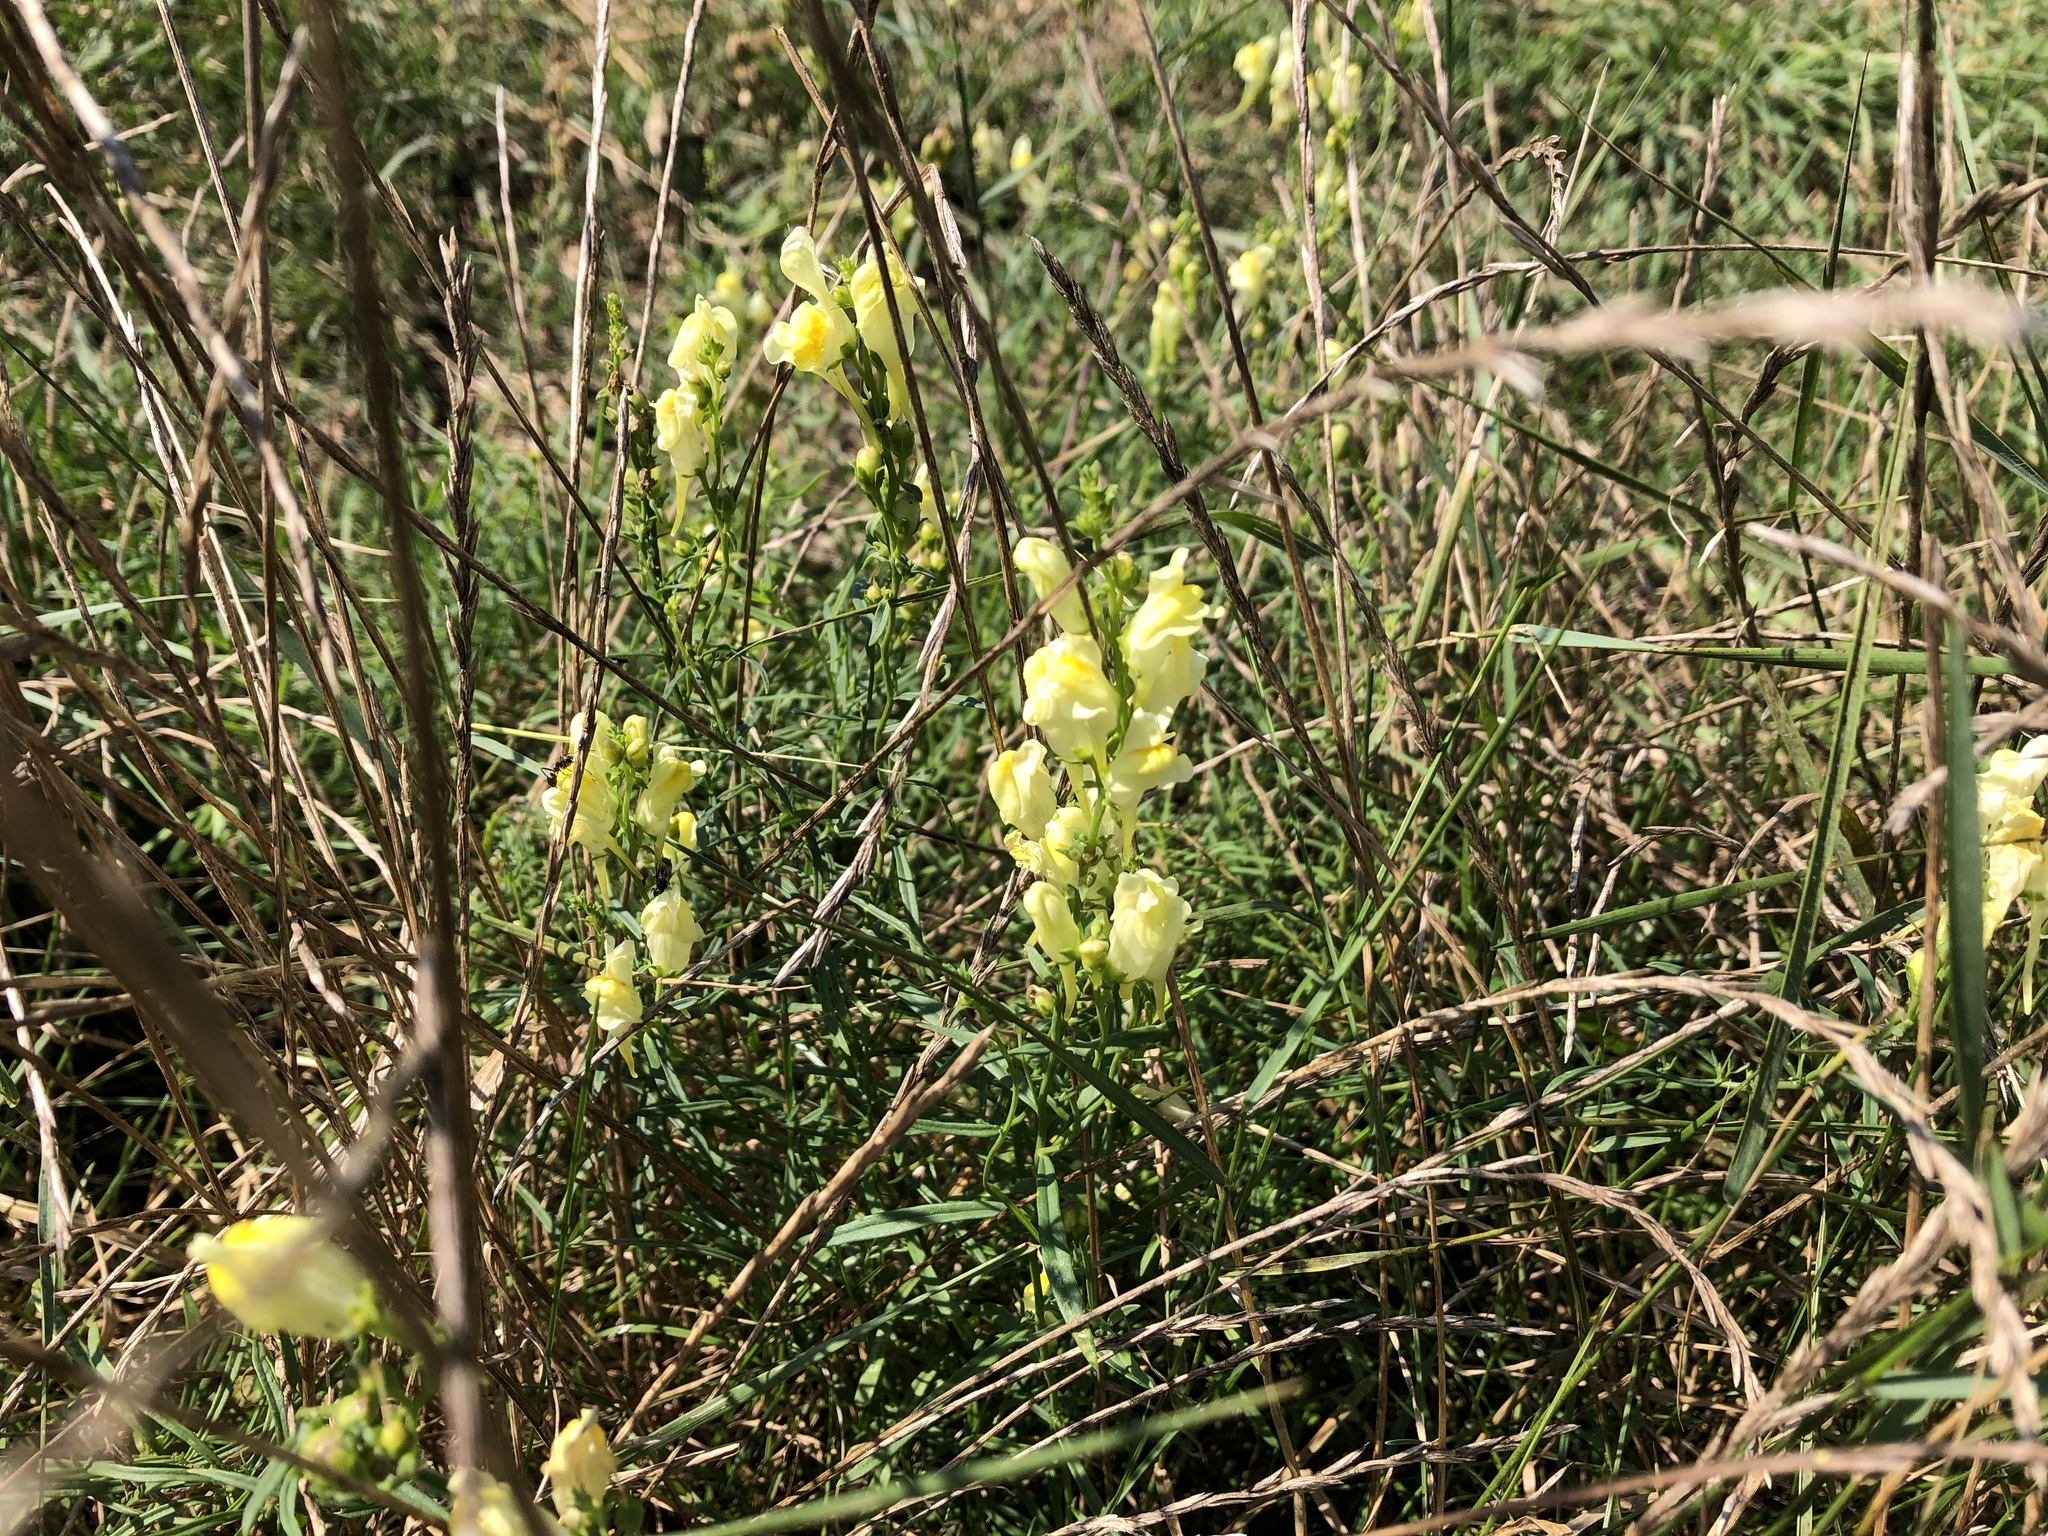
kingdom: Plantae
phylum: Tracheophyta
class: Magnoliopsida
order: Lamiales
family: Plantaginaceae
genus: Linaria
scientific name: Linaria vulgaris
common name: Butter and eggs
